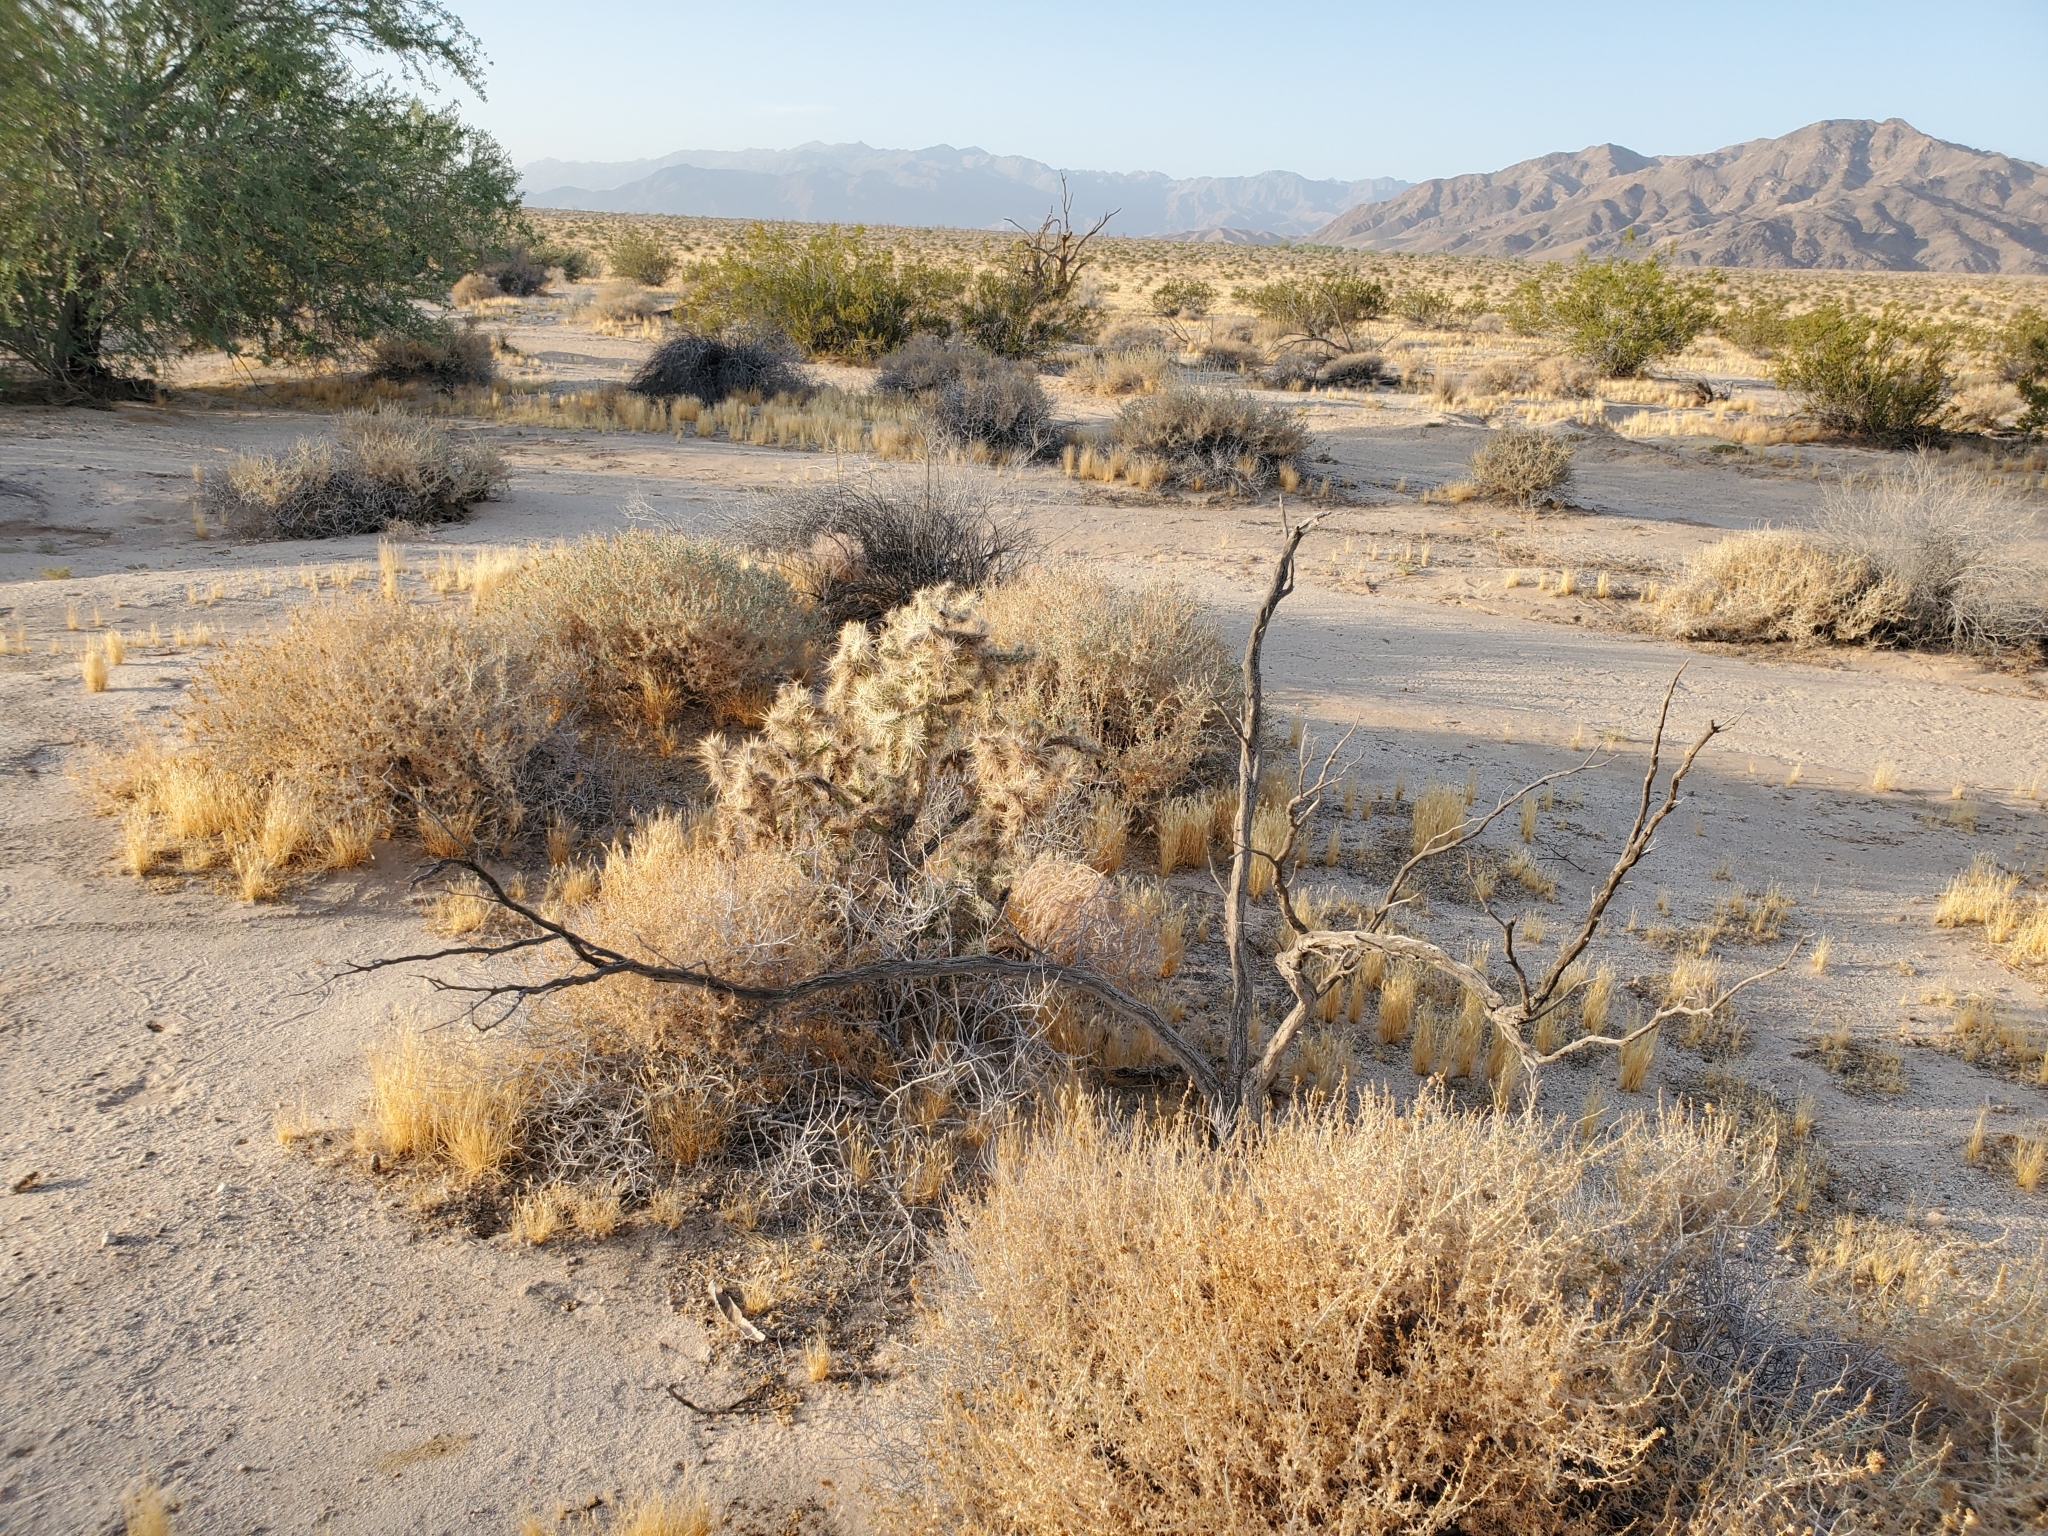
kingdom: Plantae
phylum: Tracheophyta
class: Magnoliopsida
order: Caryophyllales
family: Cactaceae
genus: Cylindropuntia
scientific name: Cylindropuntia echinocarpa
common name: Ground cholla
